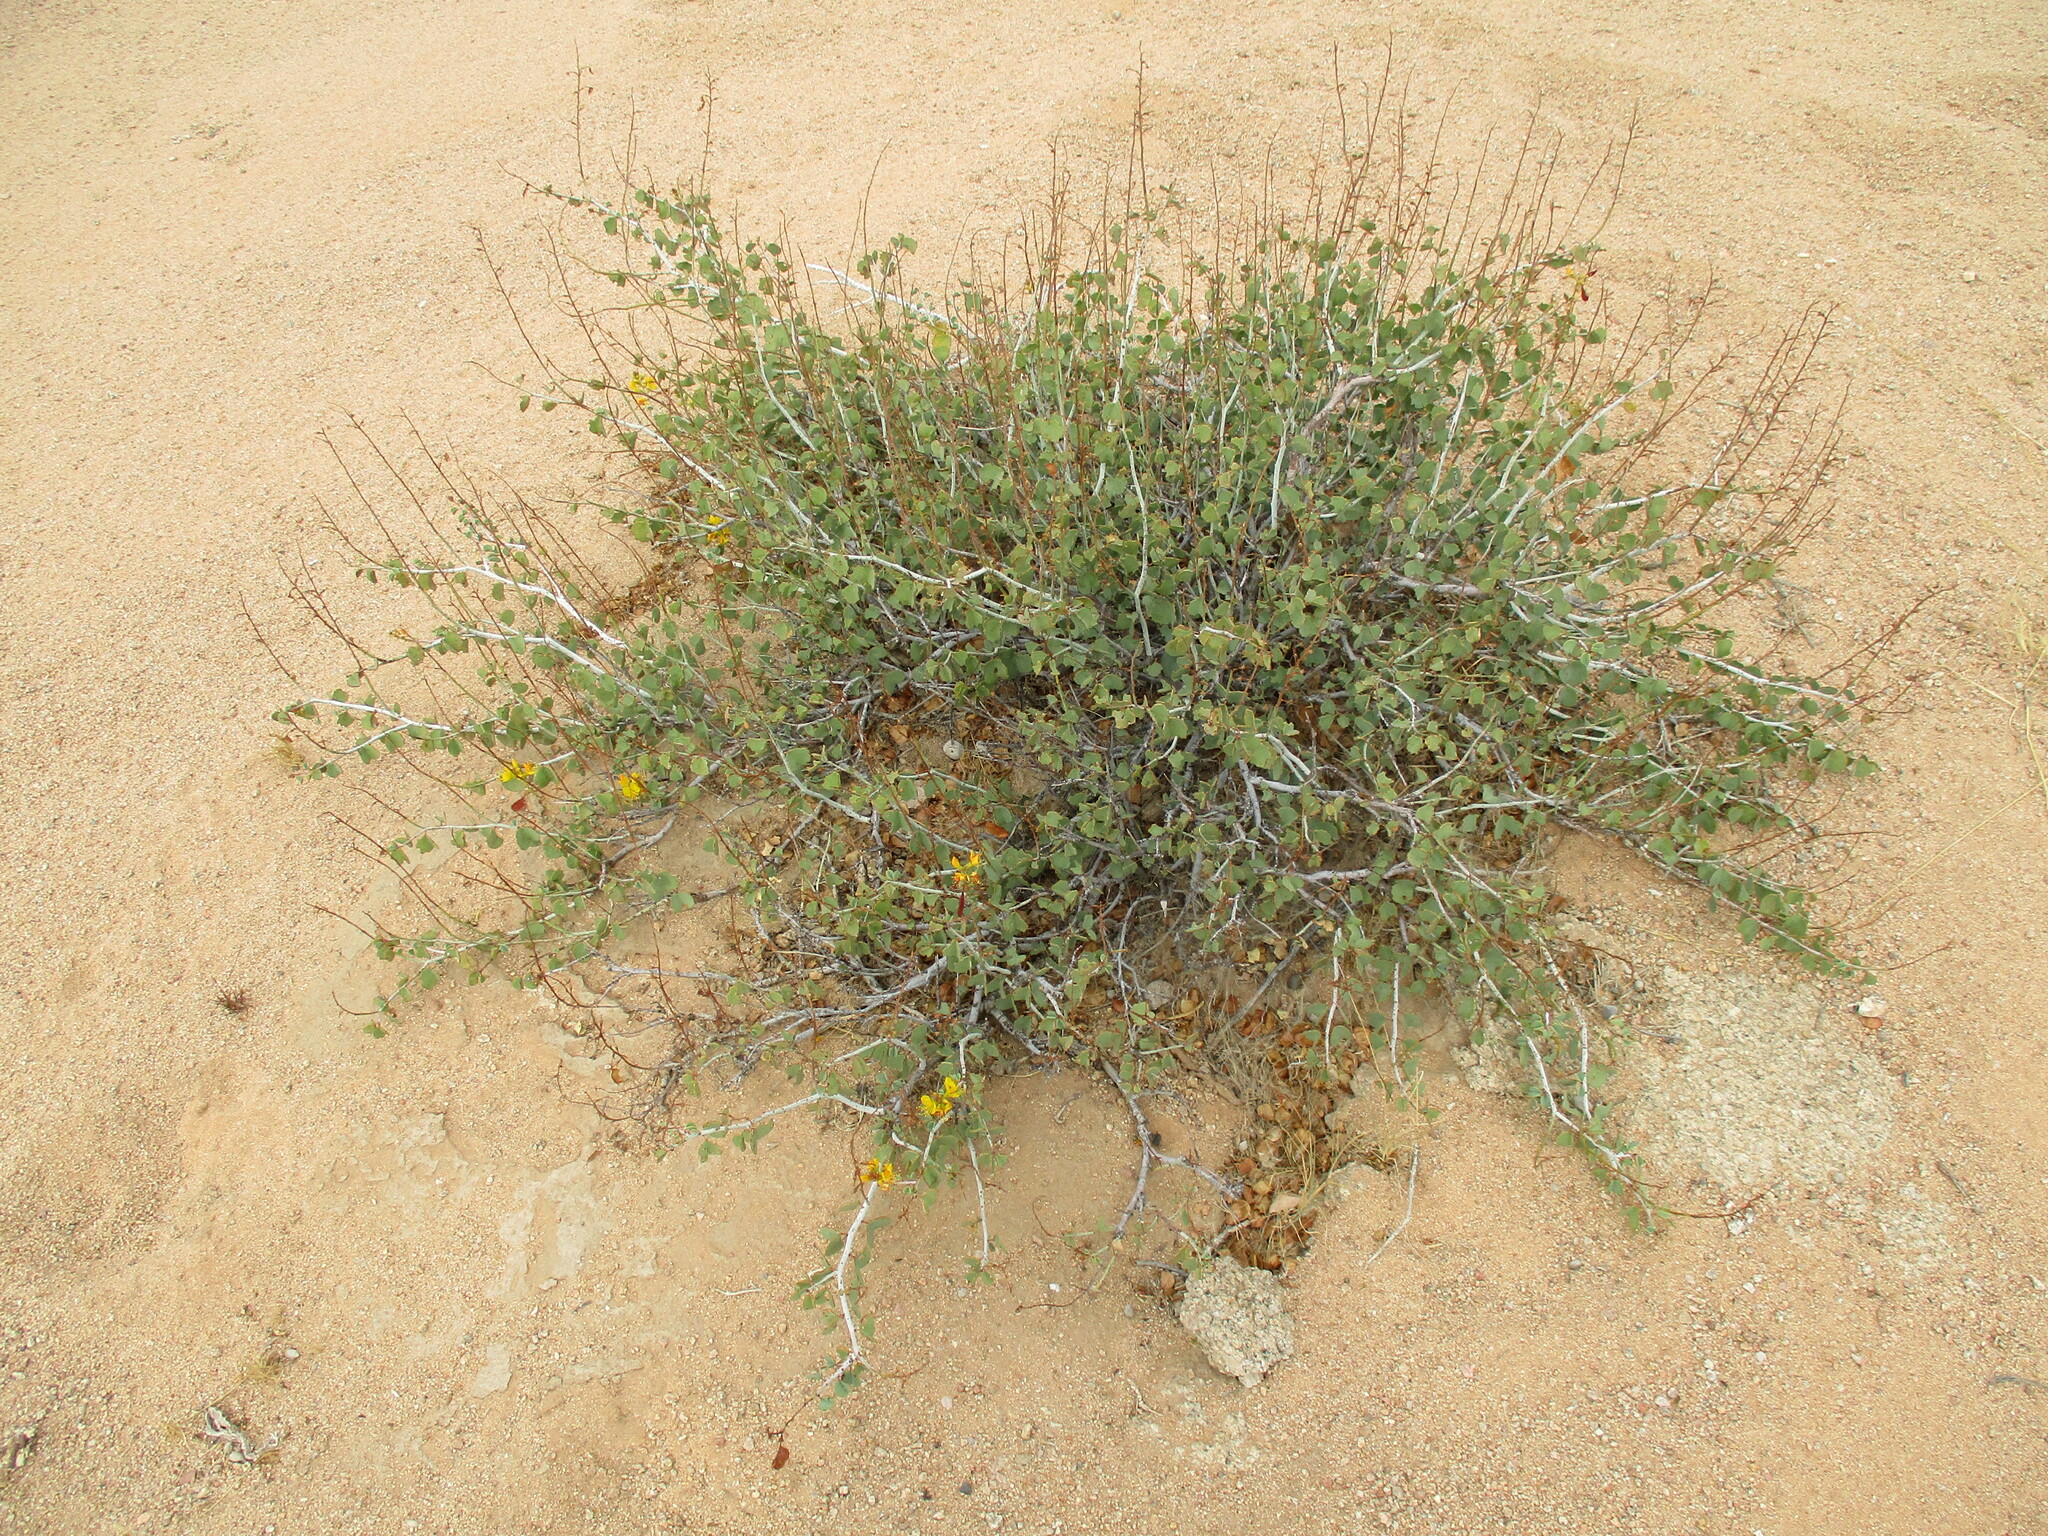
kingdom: Plantae
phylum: Tracheophyta
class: Magnoliopsida
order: Fabales
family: Fabaceae
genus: Adenolobus
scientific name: Adenolobus pechuelii
